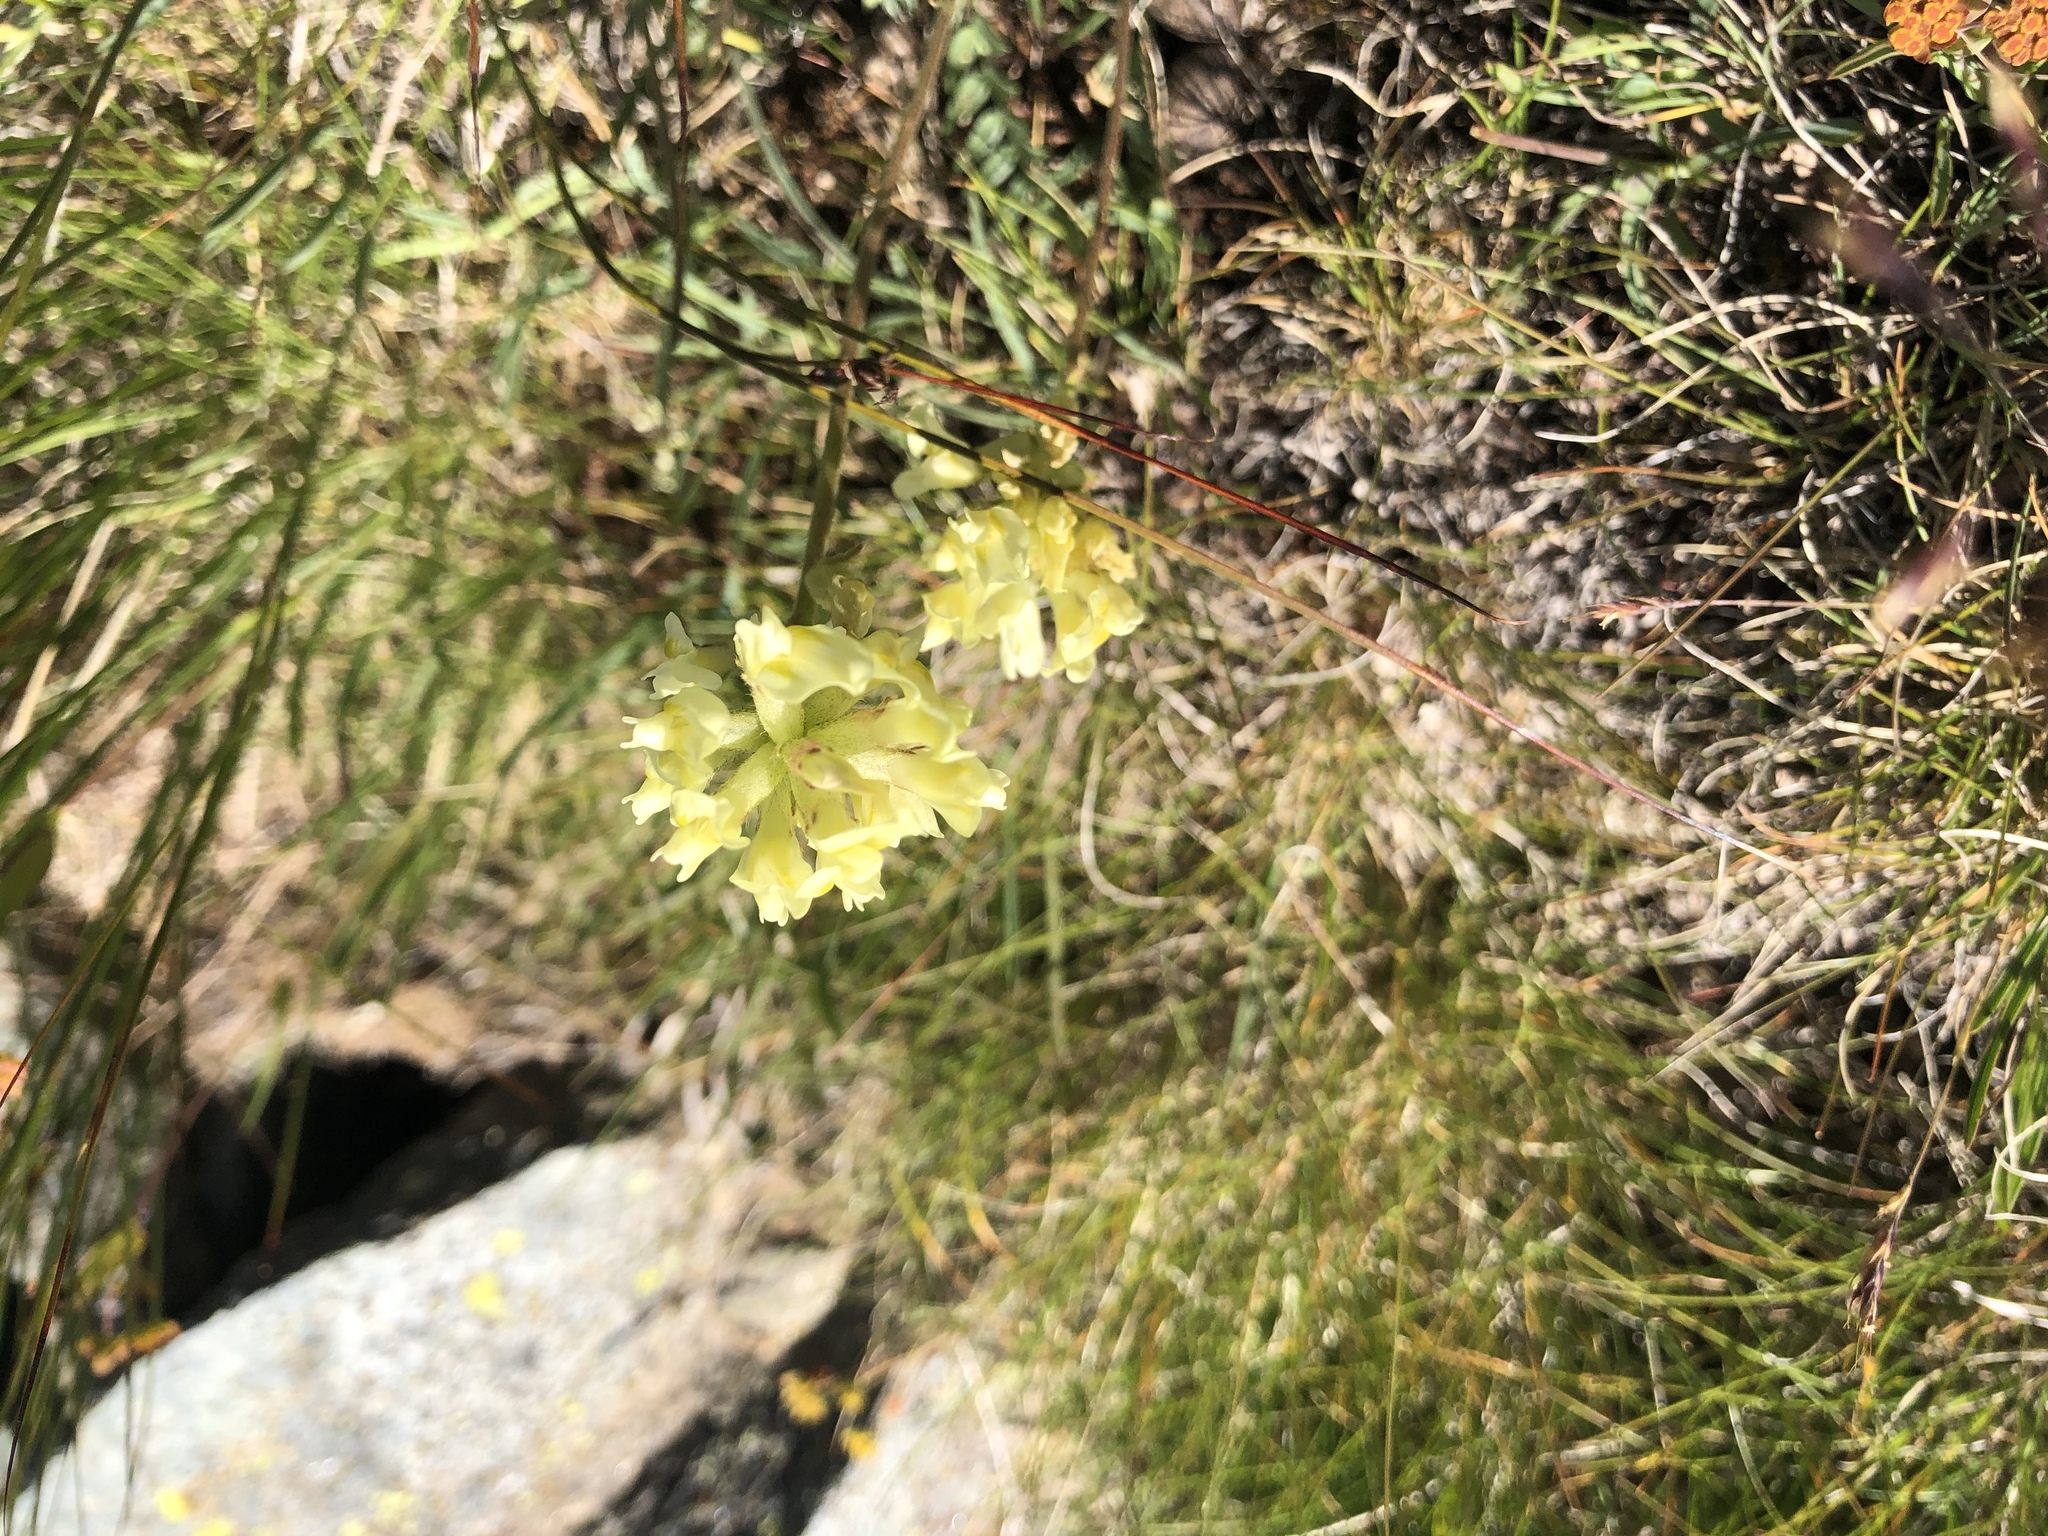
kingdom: Plantae
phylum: Tracheophyta
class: Magnoliopsida
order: Fabales
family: Fabaceae
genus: Oxytropis
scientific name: Oxytropis campestris
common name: Field locoweed
